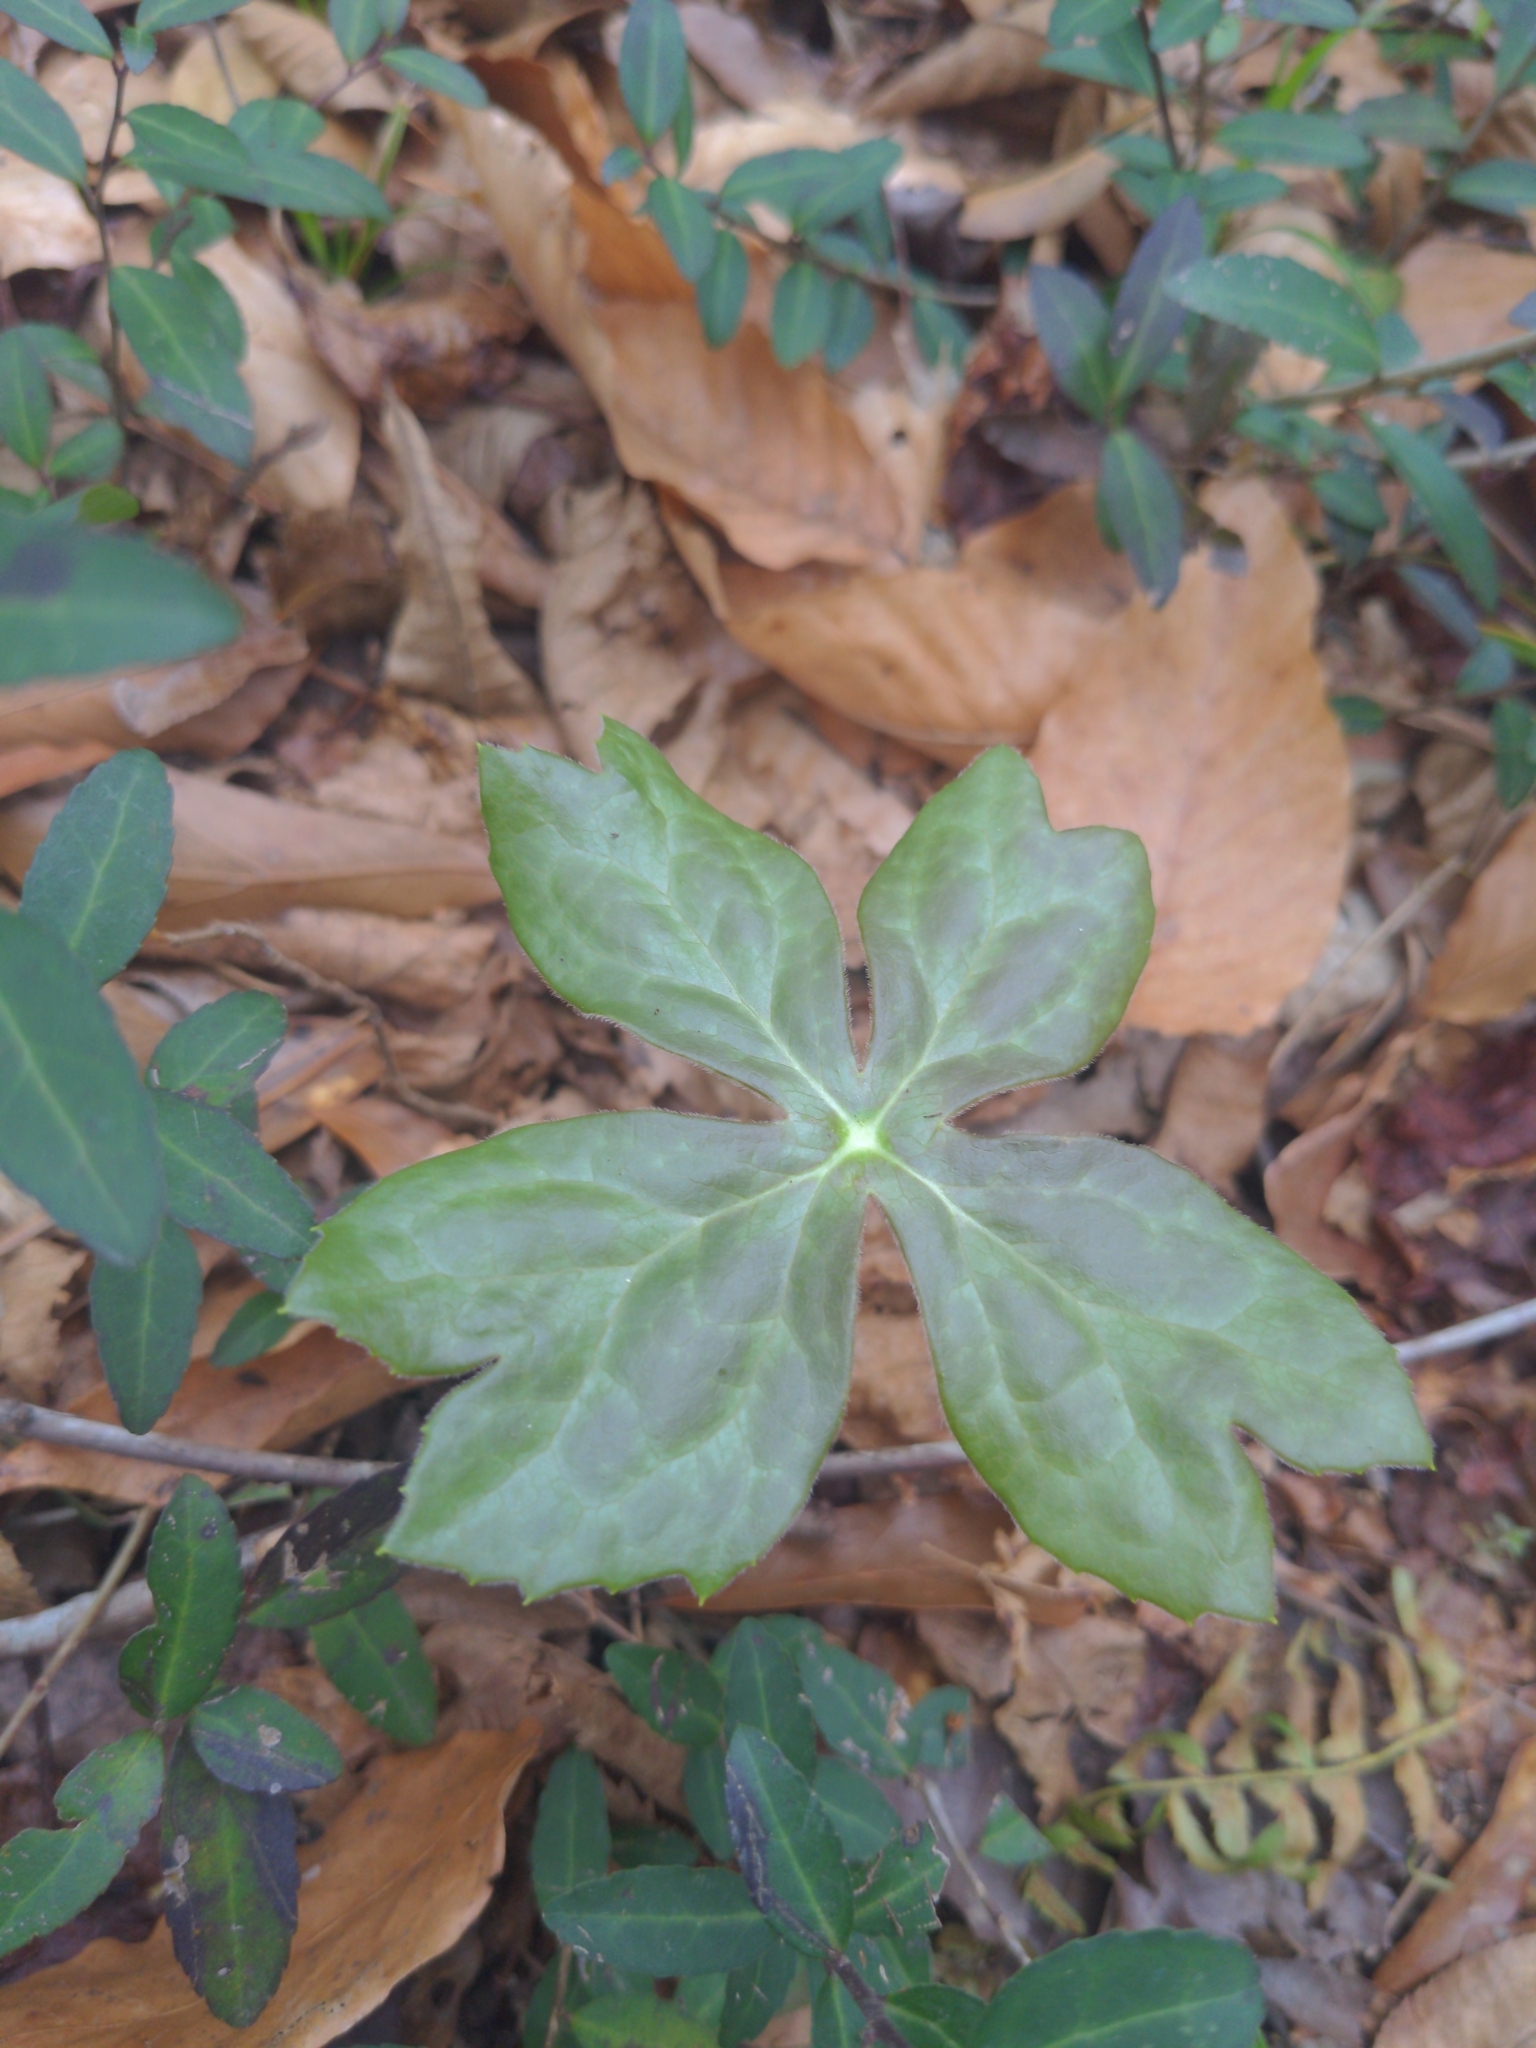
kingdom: Plantae
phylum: Tracheophyta
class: Magnoliopsida
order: Ranunculales
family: Berberidaceae
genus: Podophyllum
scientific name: Podophyllum peltatum
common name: Wild mandrake
